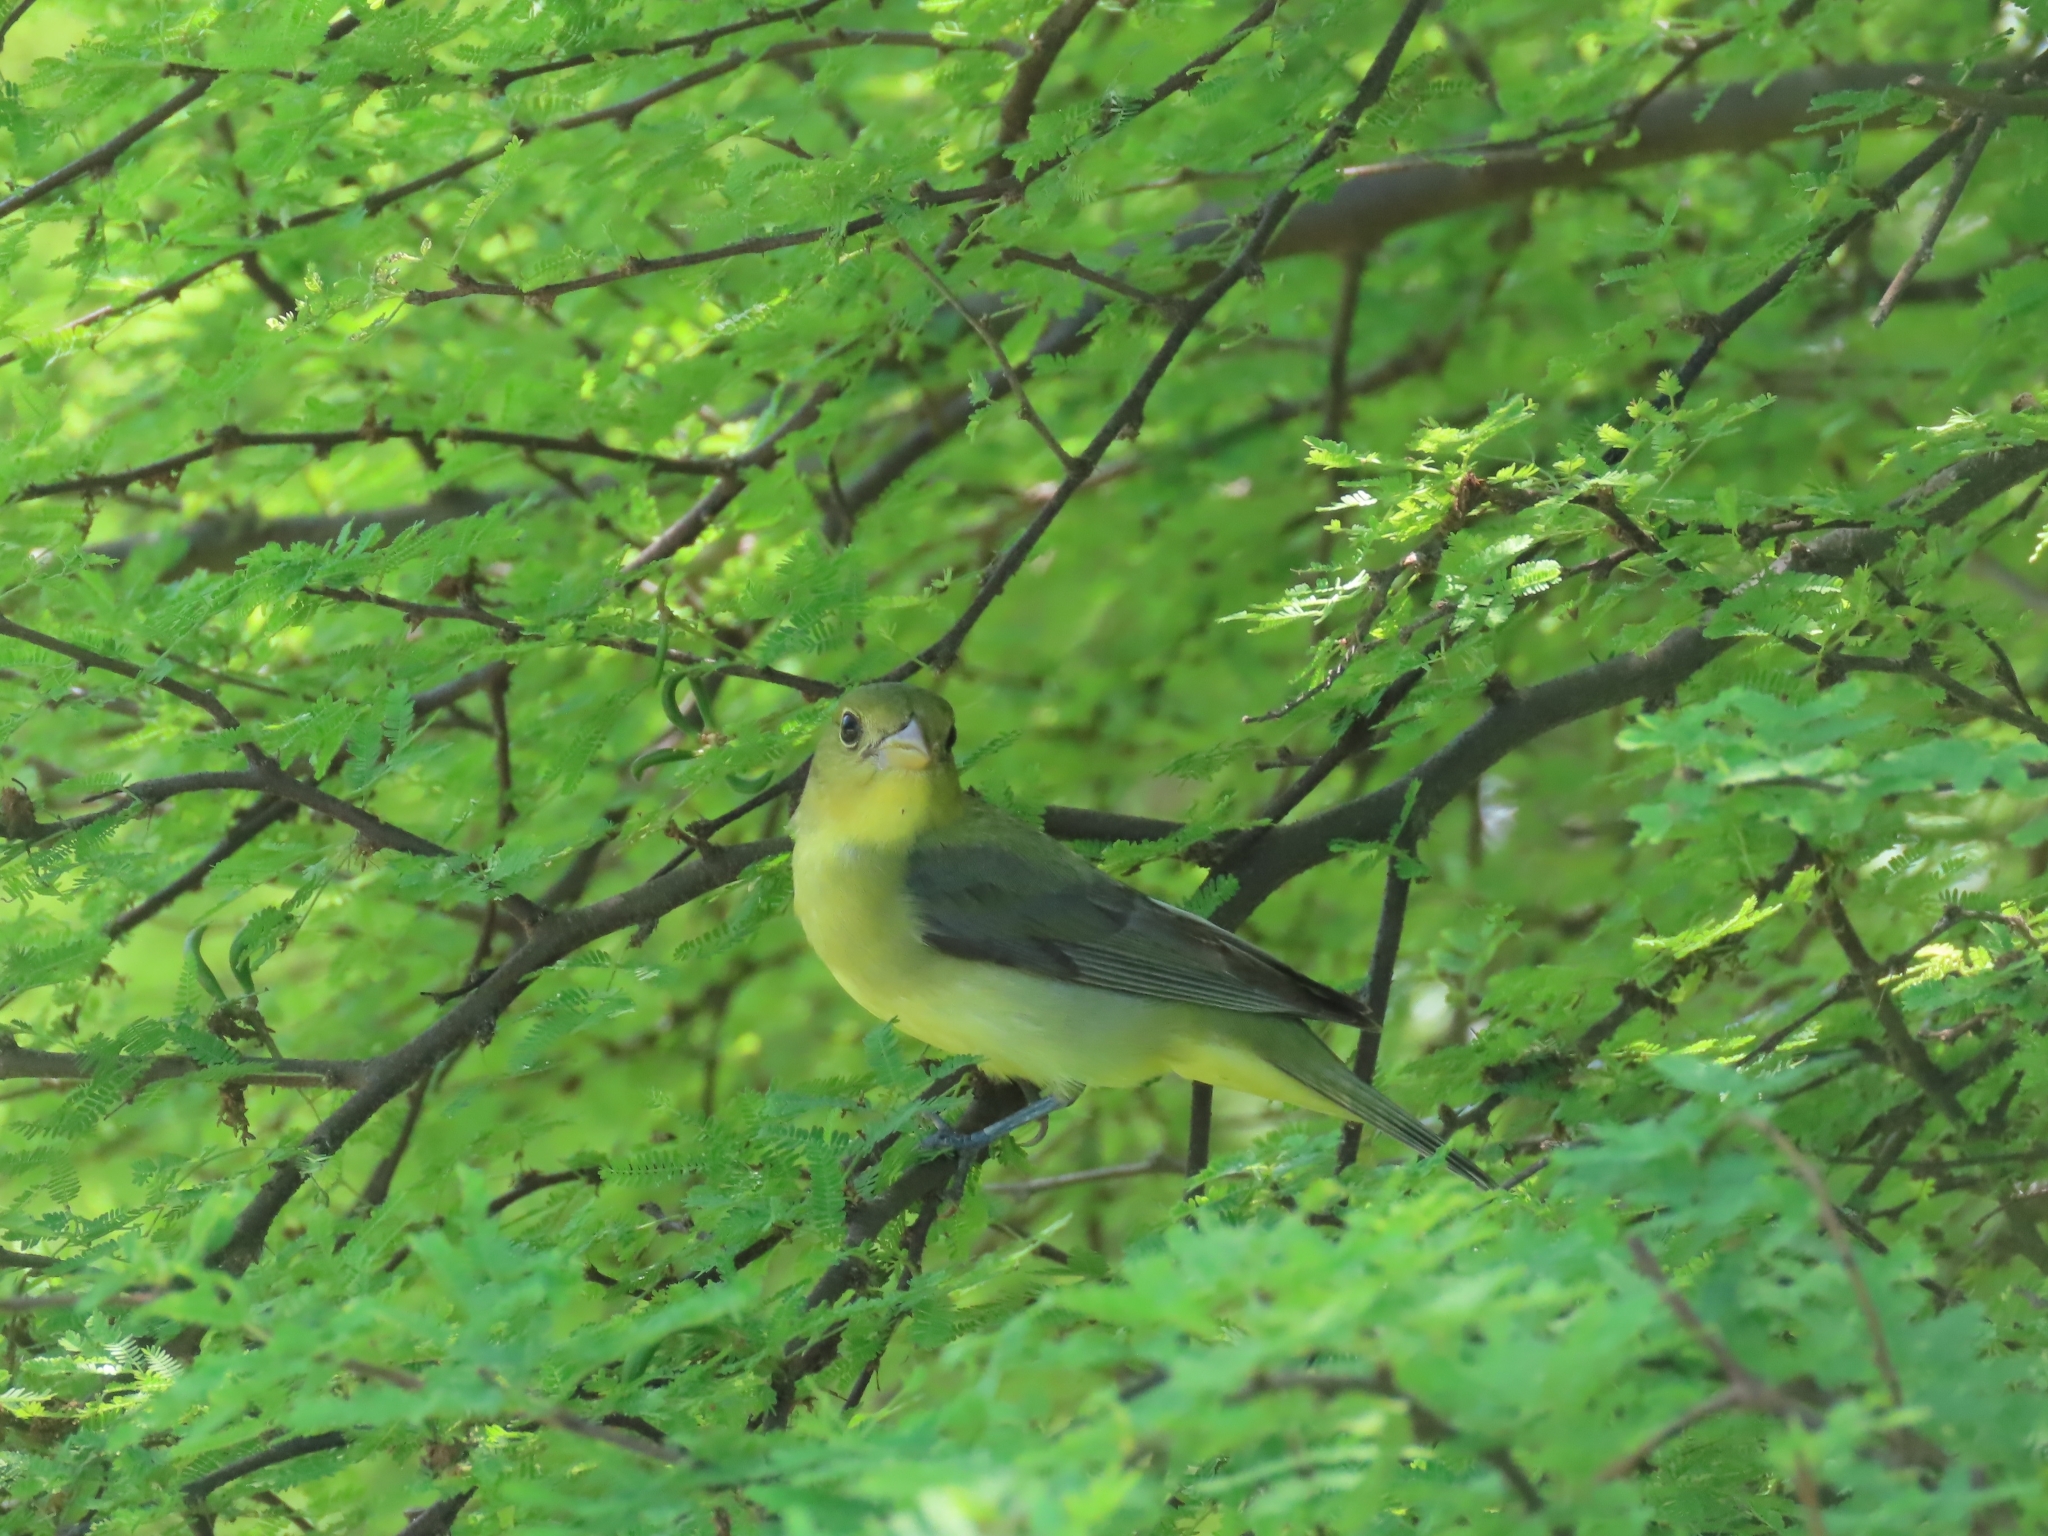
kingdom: Animalia
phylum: Chordata
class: Aves
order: Passeriformes
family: Cardinalidae
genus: Piranga
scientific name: Piranga olivacea
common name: Scarlet tanager
